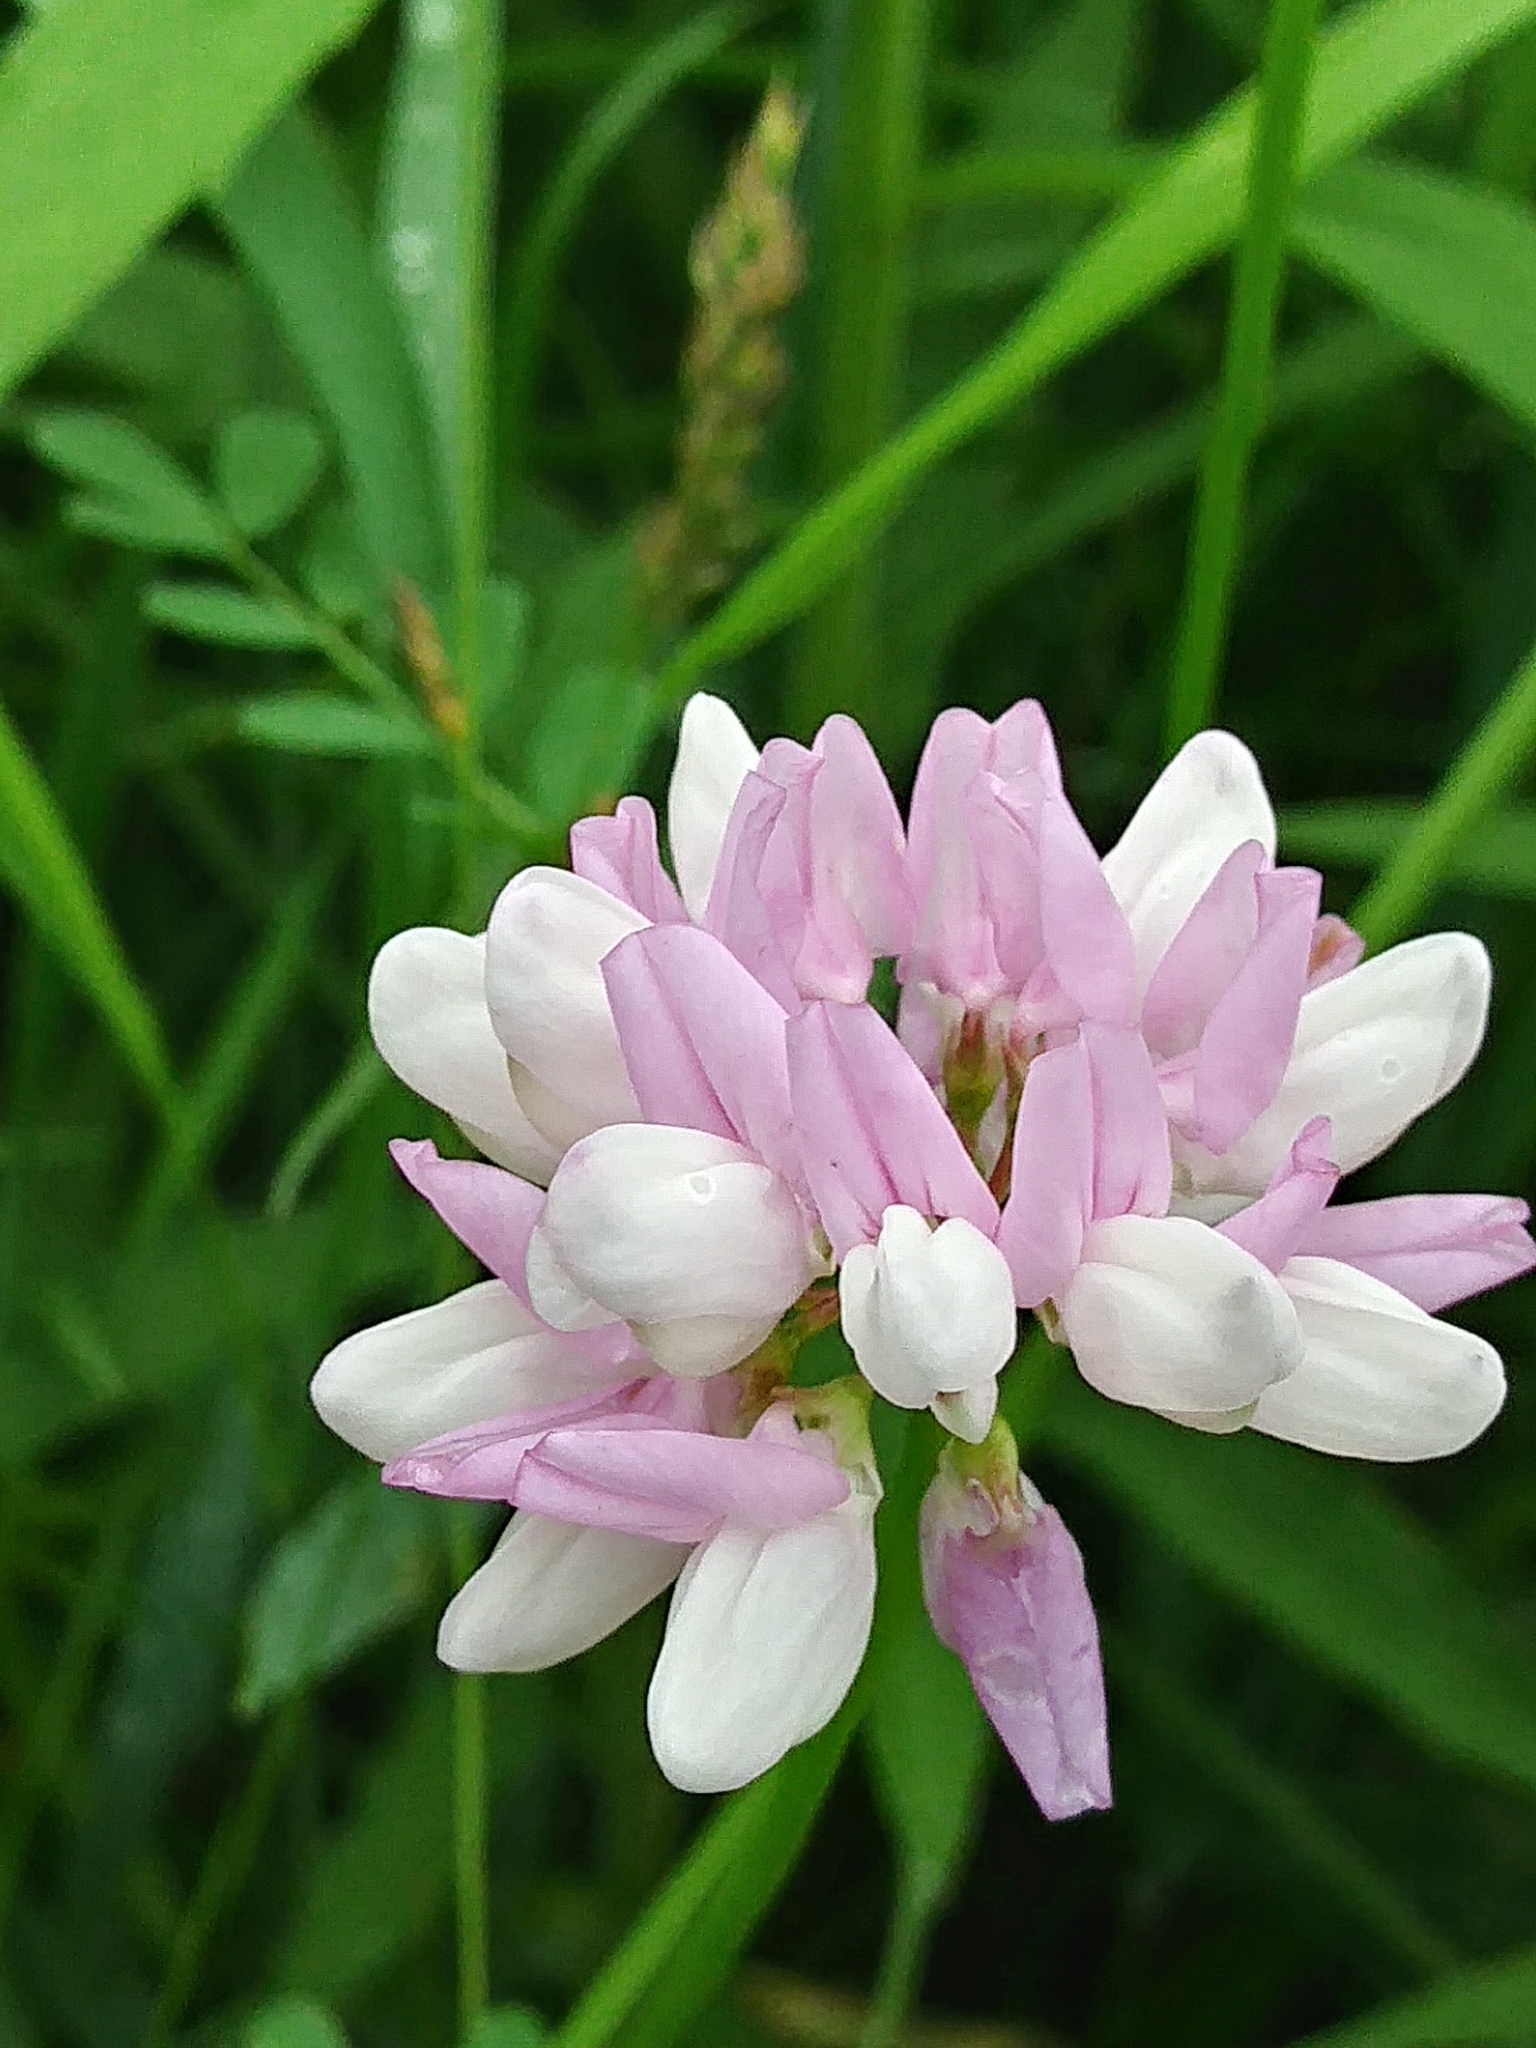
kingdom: Plantae
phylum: Tracheophyta
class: Magnoliopsida
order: Fabales
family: Fabaceae
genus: Coronilla
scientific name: Coronilla varia
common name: Crownvetch
